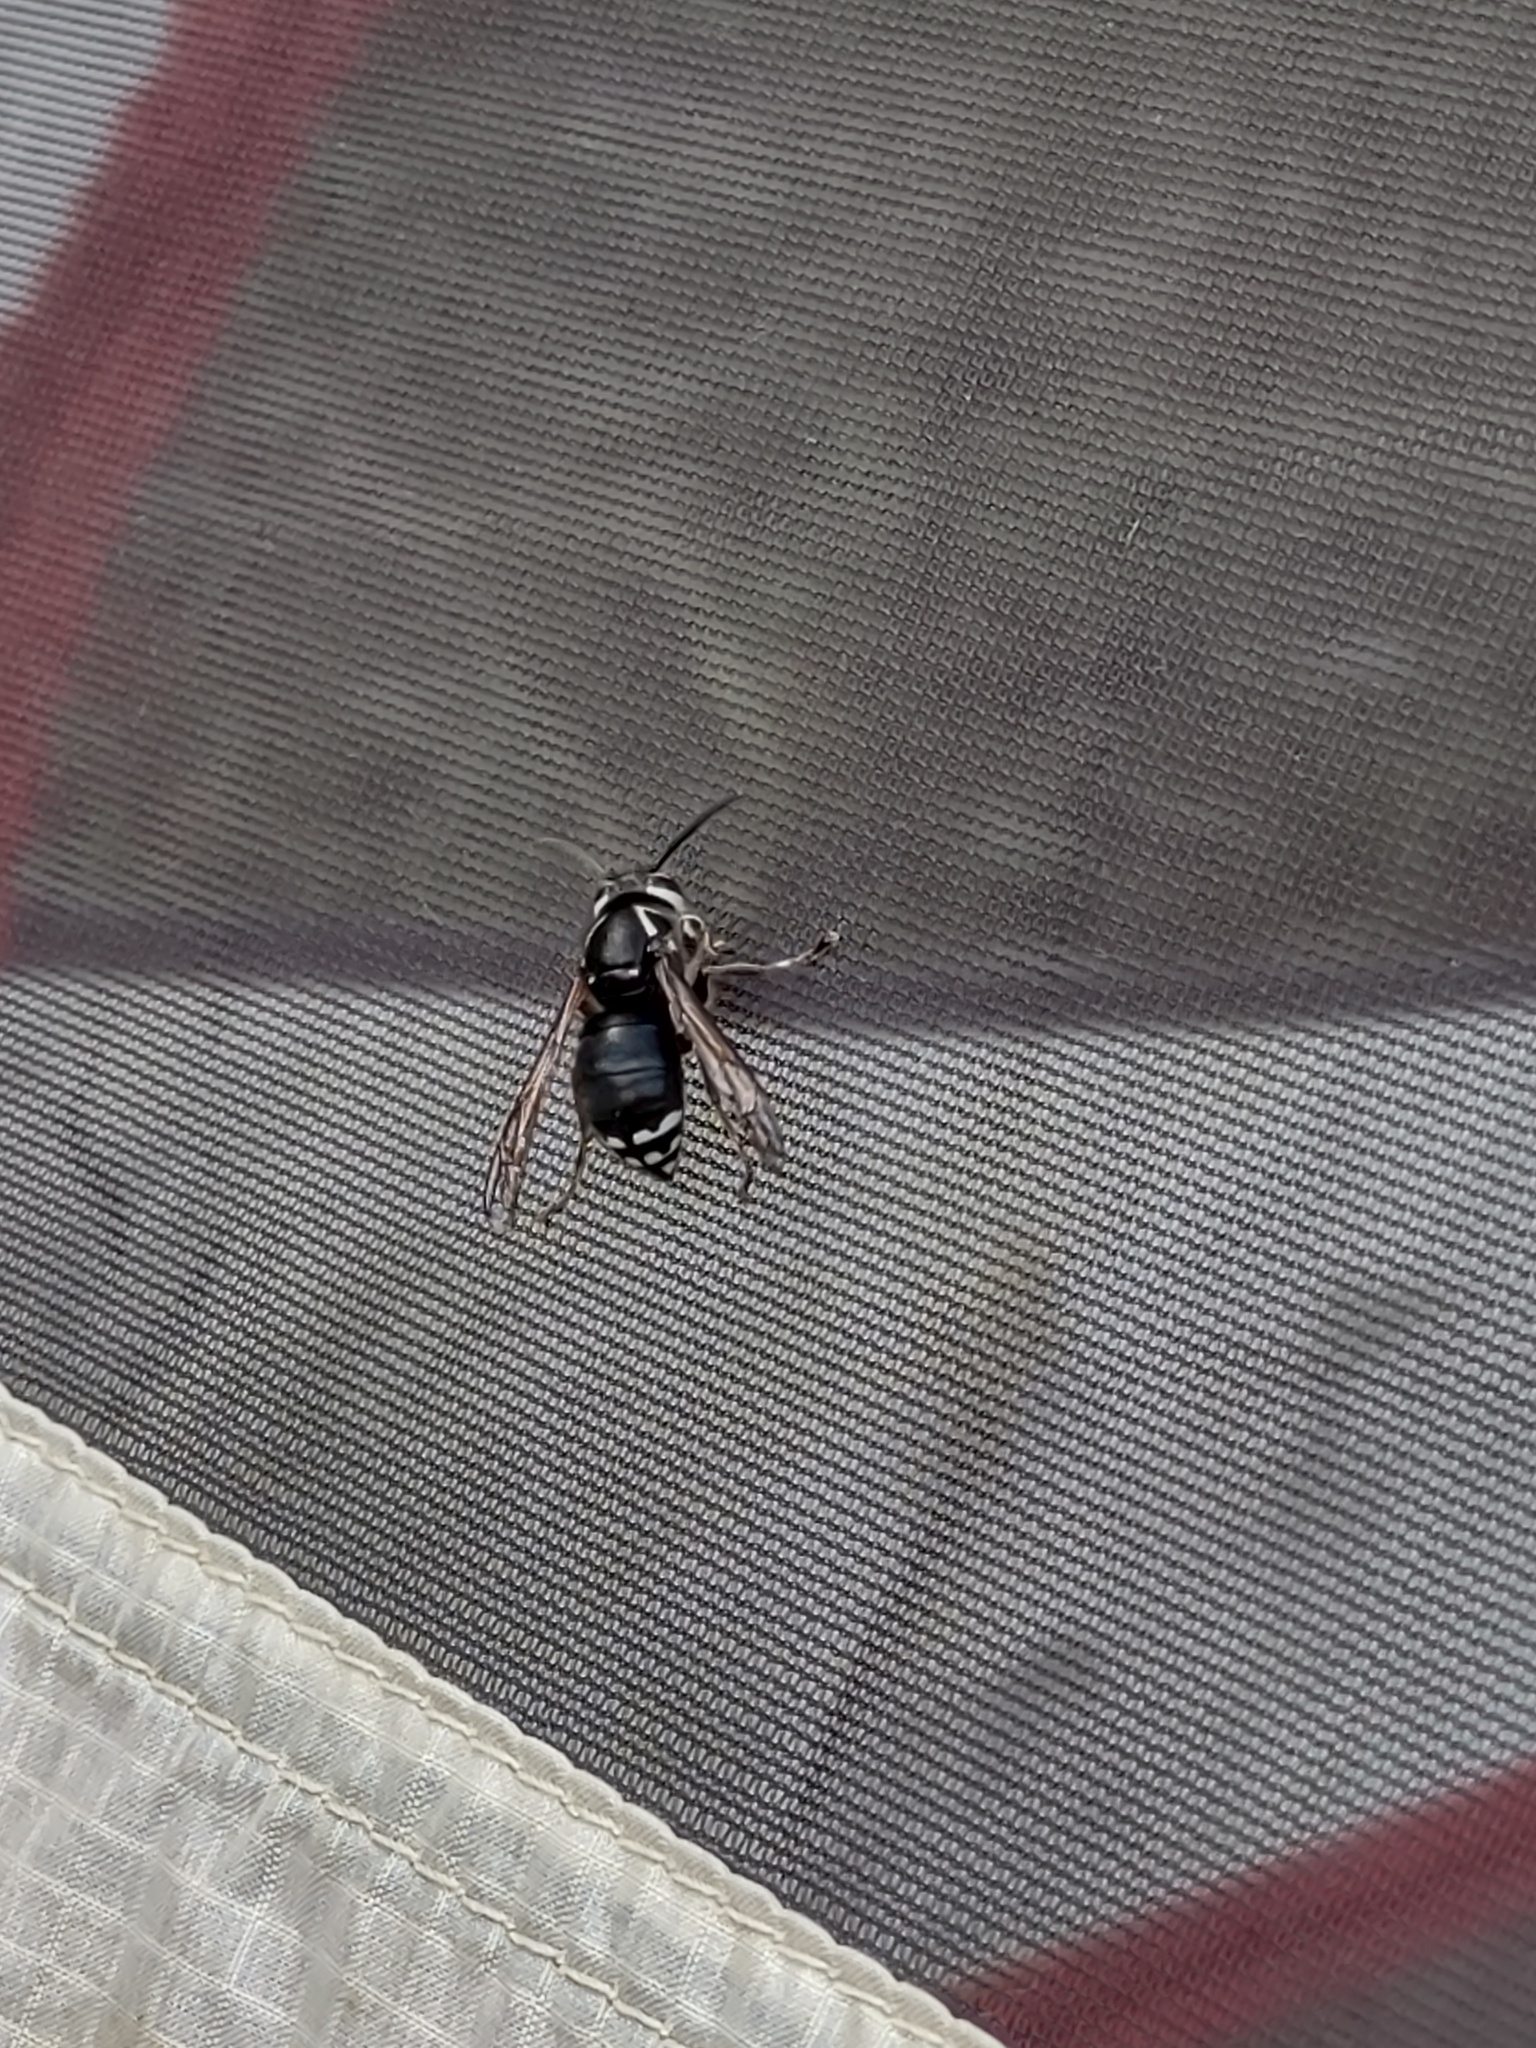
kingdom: Animalia
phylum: Arthropoda
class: Insecta
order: Hymenoptera
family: Vespidae
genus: Dolichovespula
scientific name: Dolichovespula maculata
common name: Bald-faced hornet
